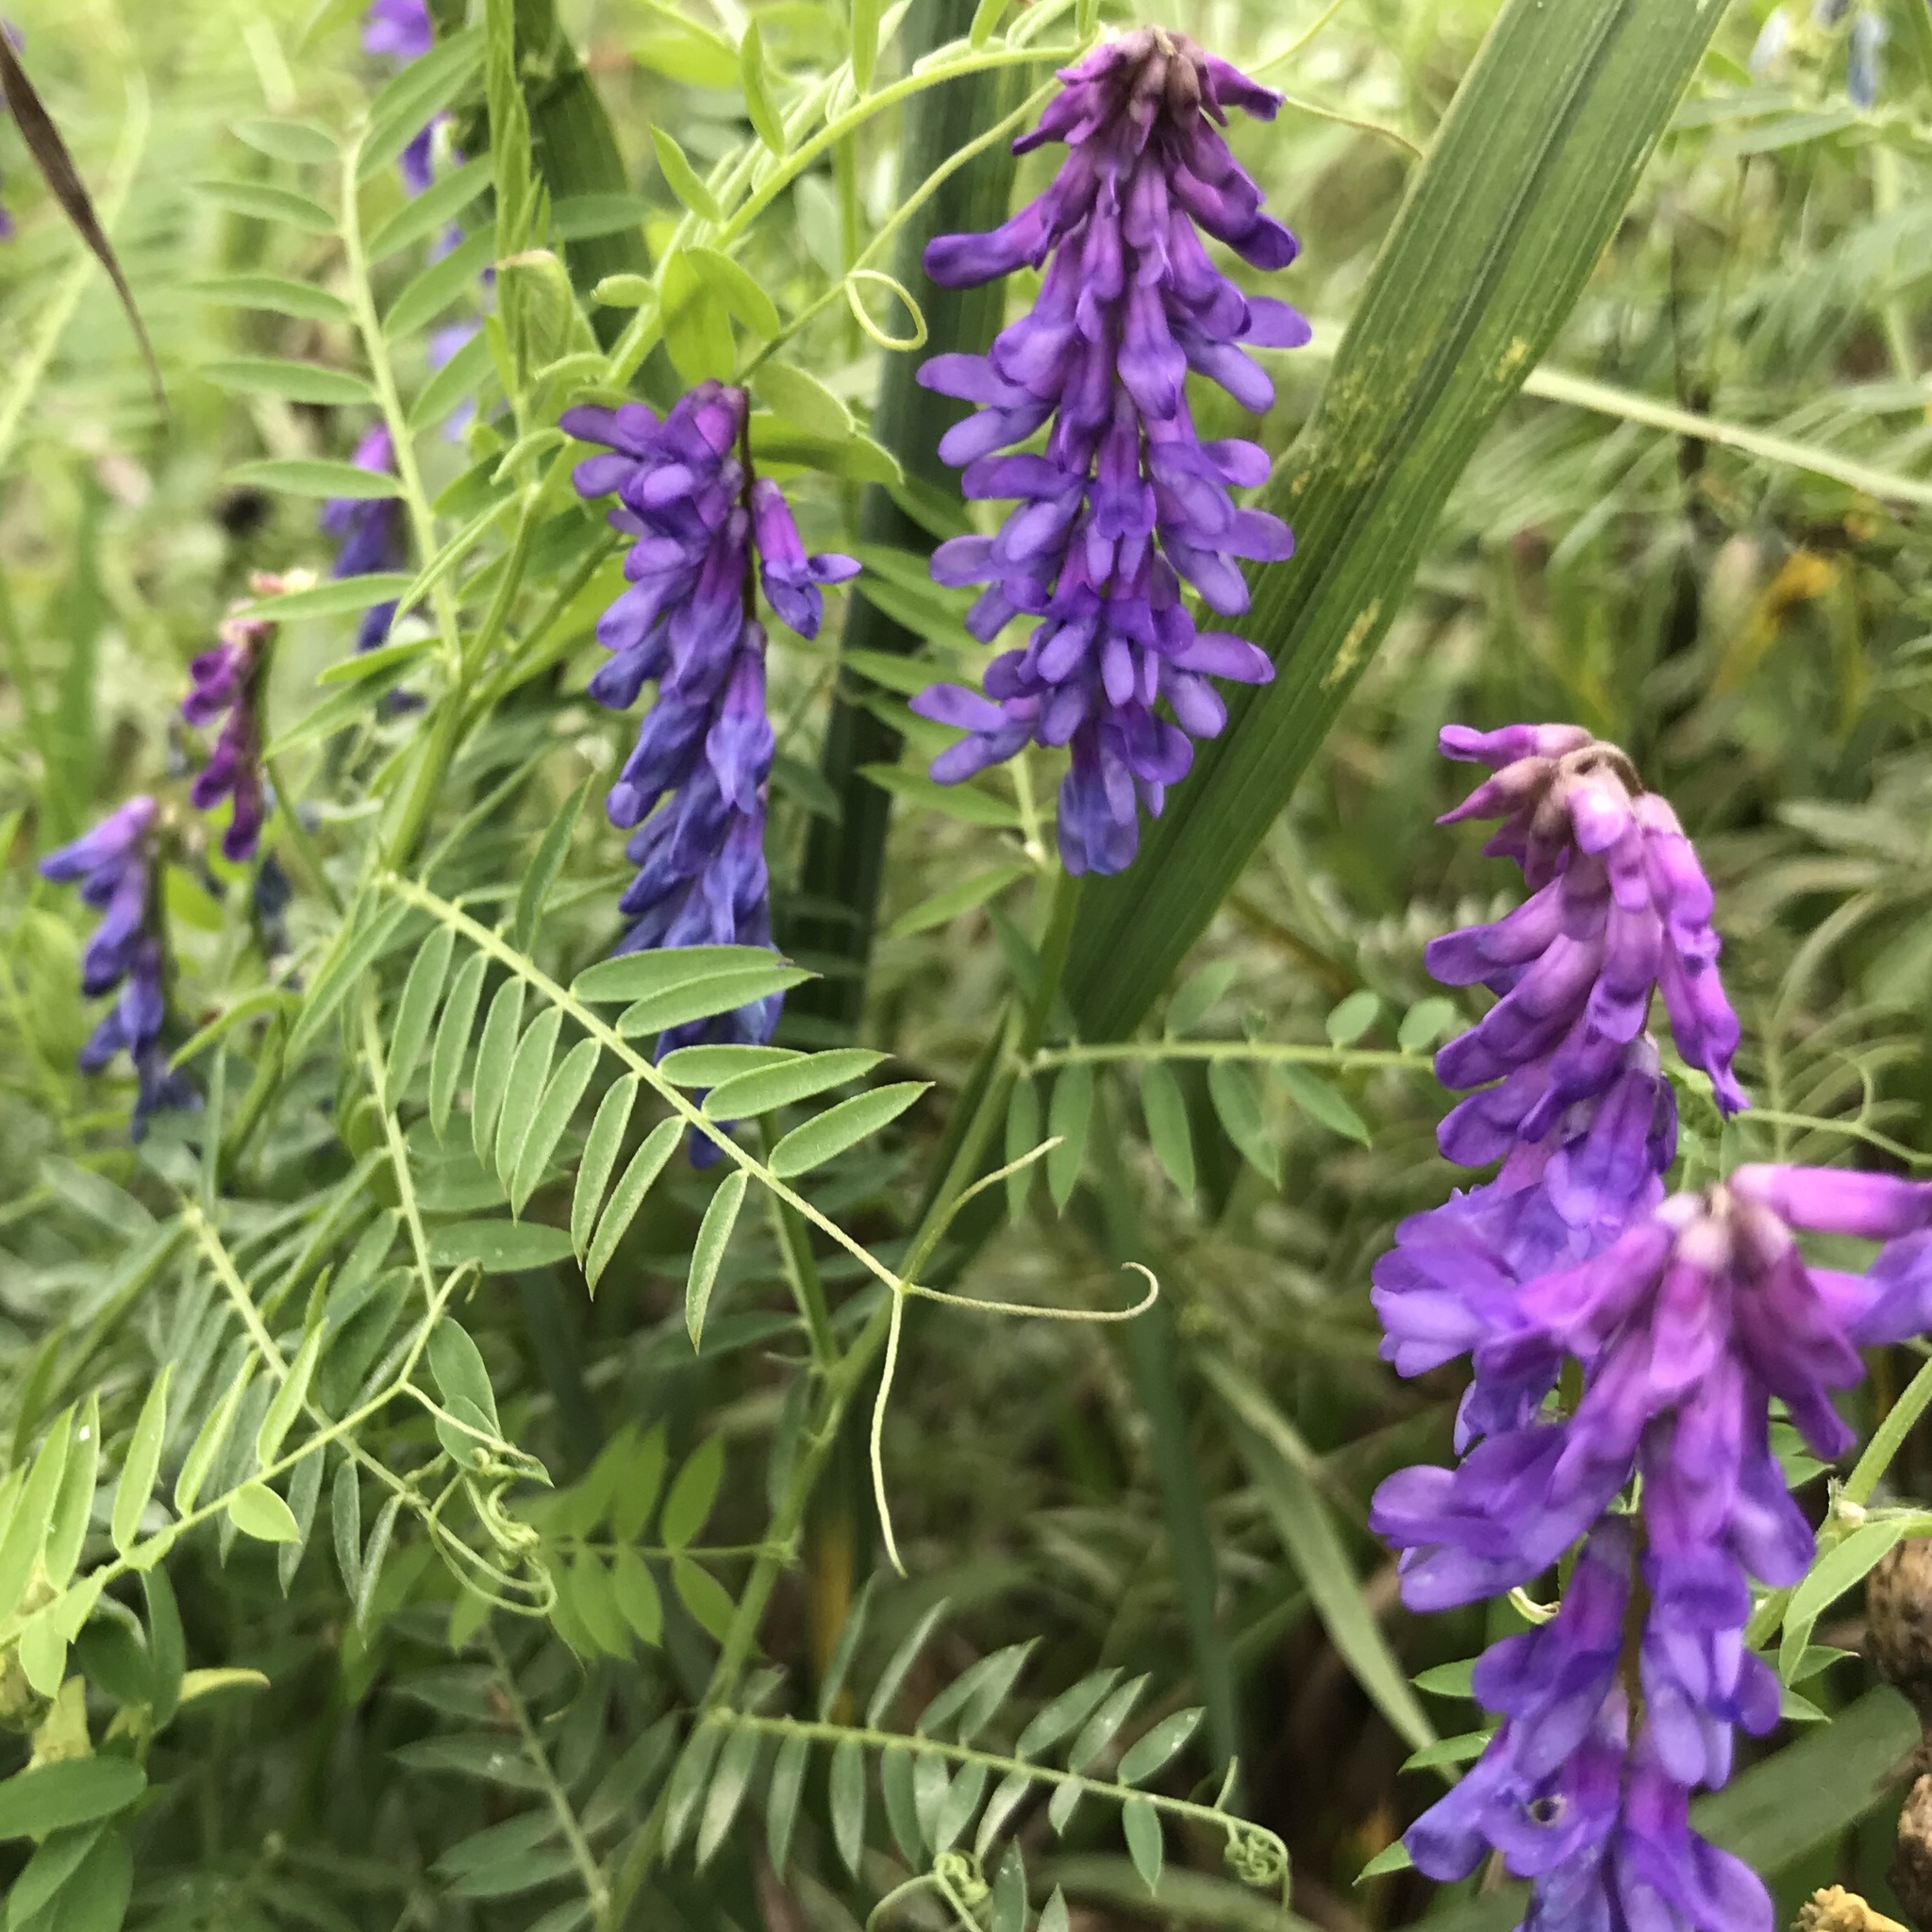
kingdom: Plantae
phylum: Tracheophyta
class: Magnoliopsida
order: Fabales
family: Fabaceae
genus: Vicia
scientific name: Vicia cracca
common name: Bird vetch
